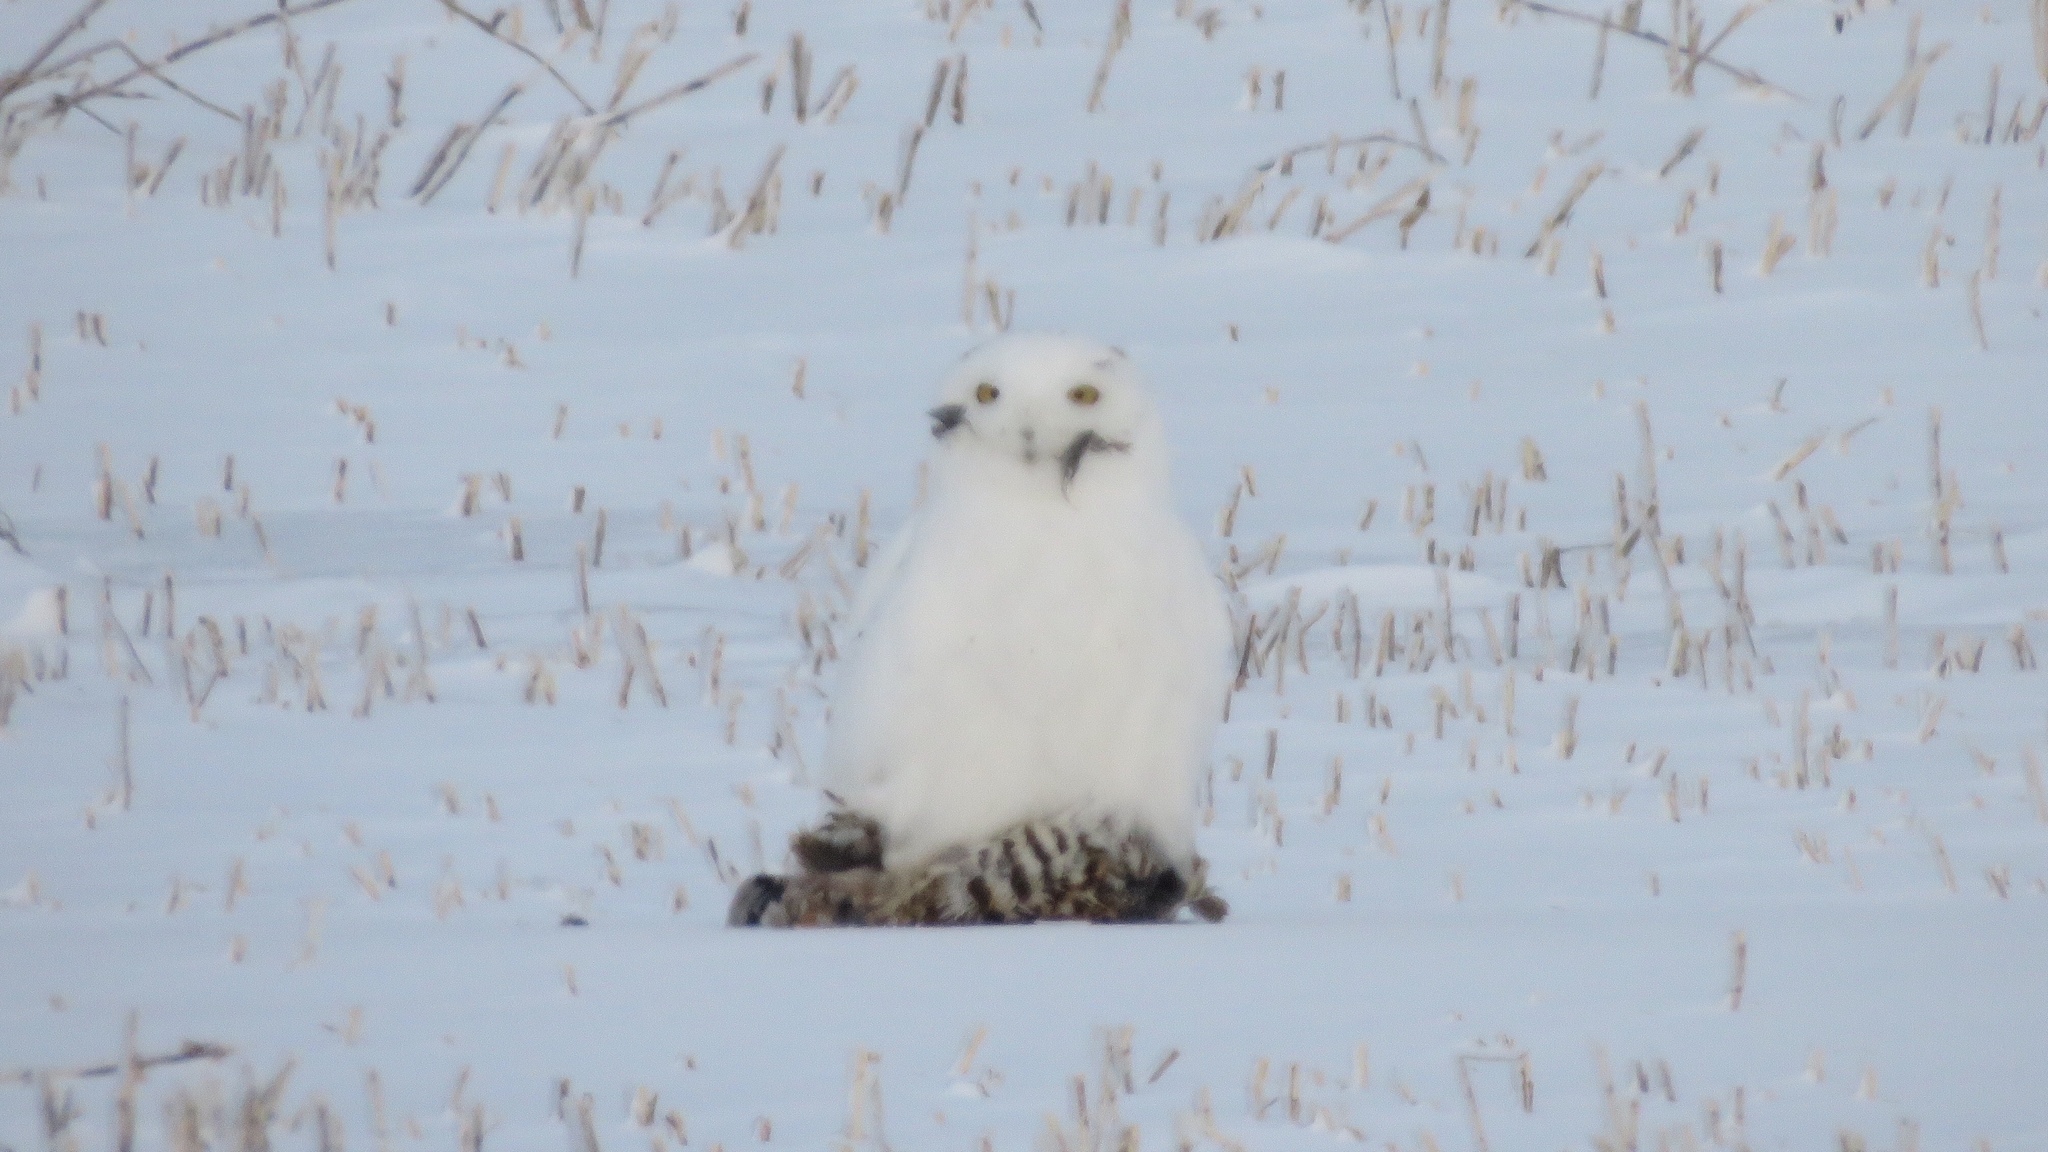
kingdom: Animalia
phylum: Chordata
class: Aves
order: Strigiformes
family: Strigidae
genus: Bubo
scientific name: Bubo scandiacus
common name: Snowy owl
